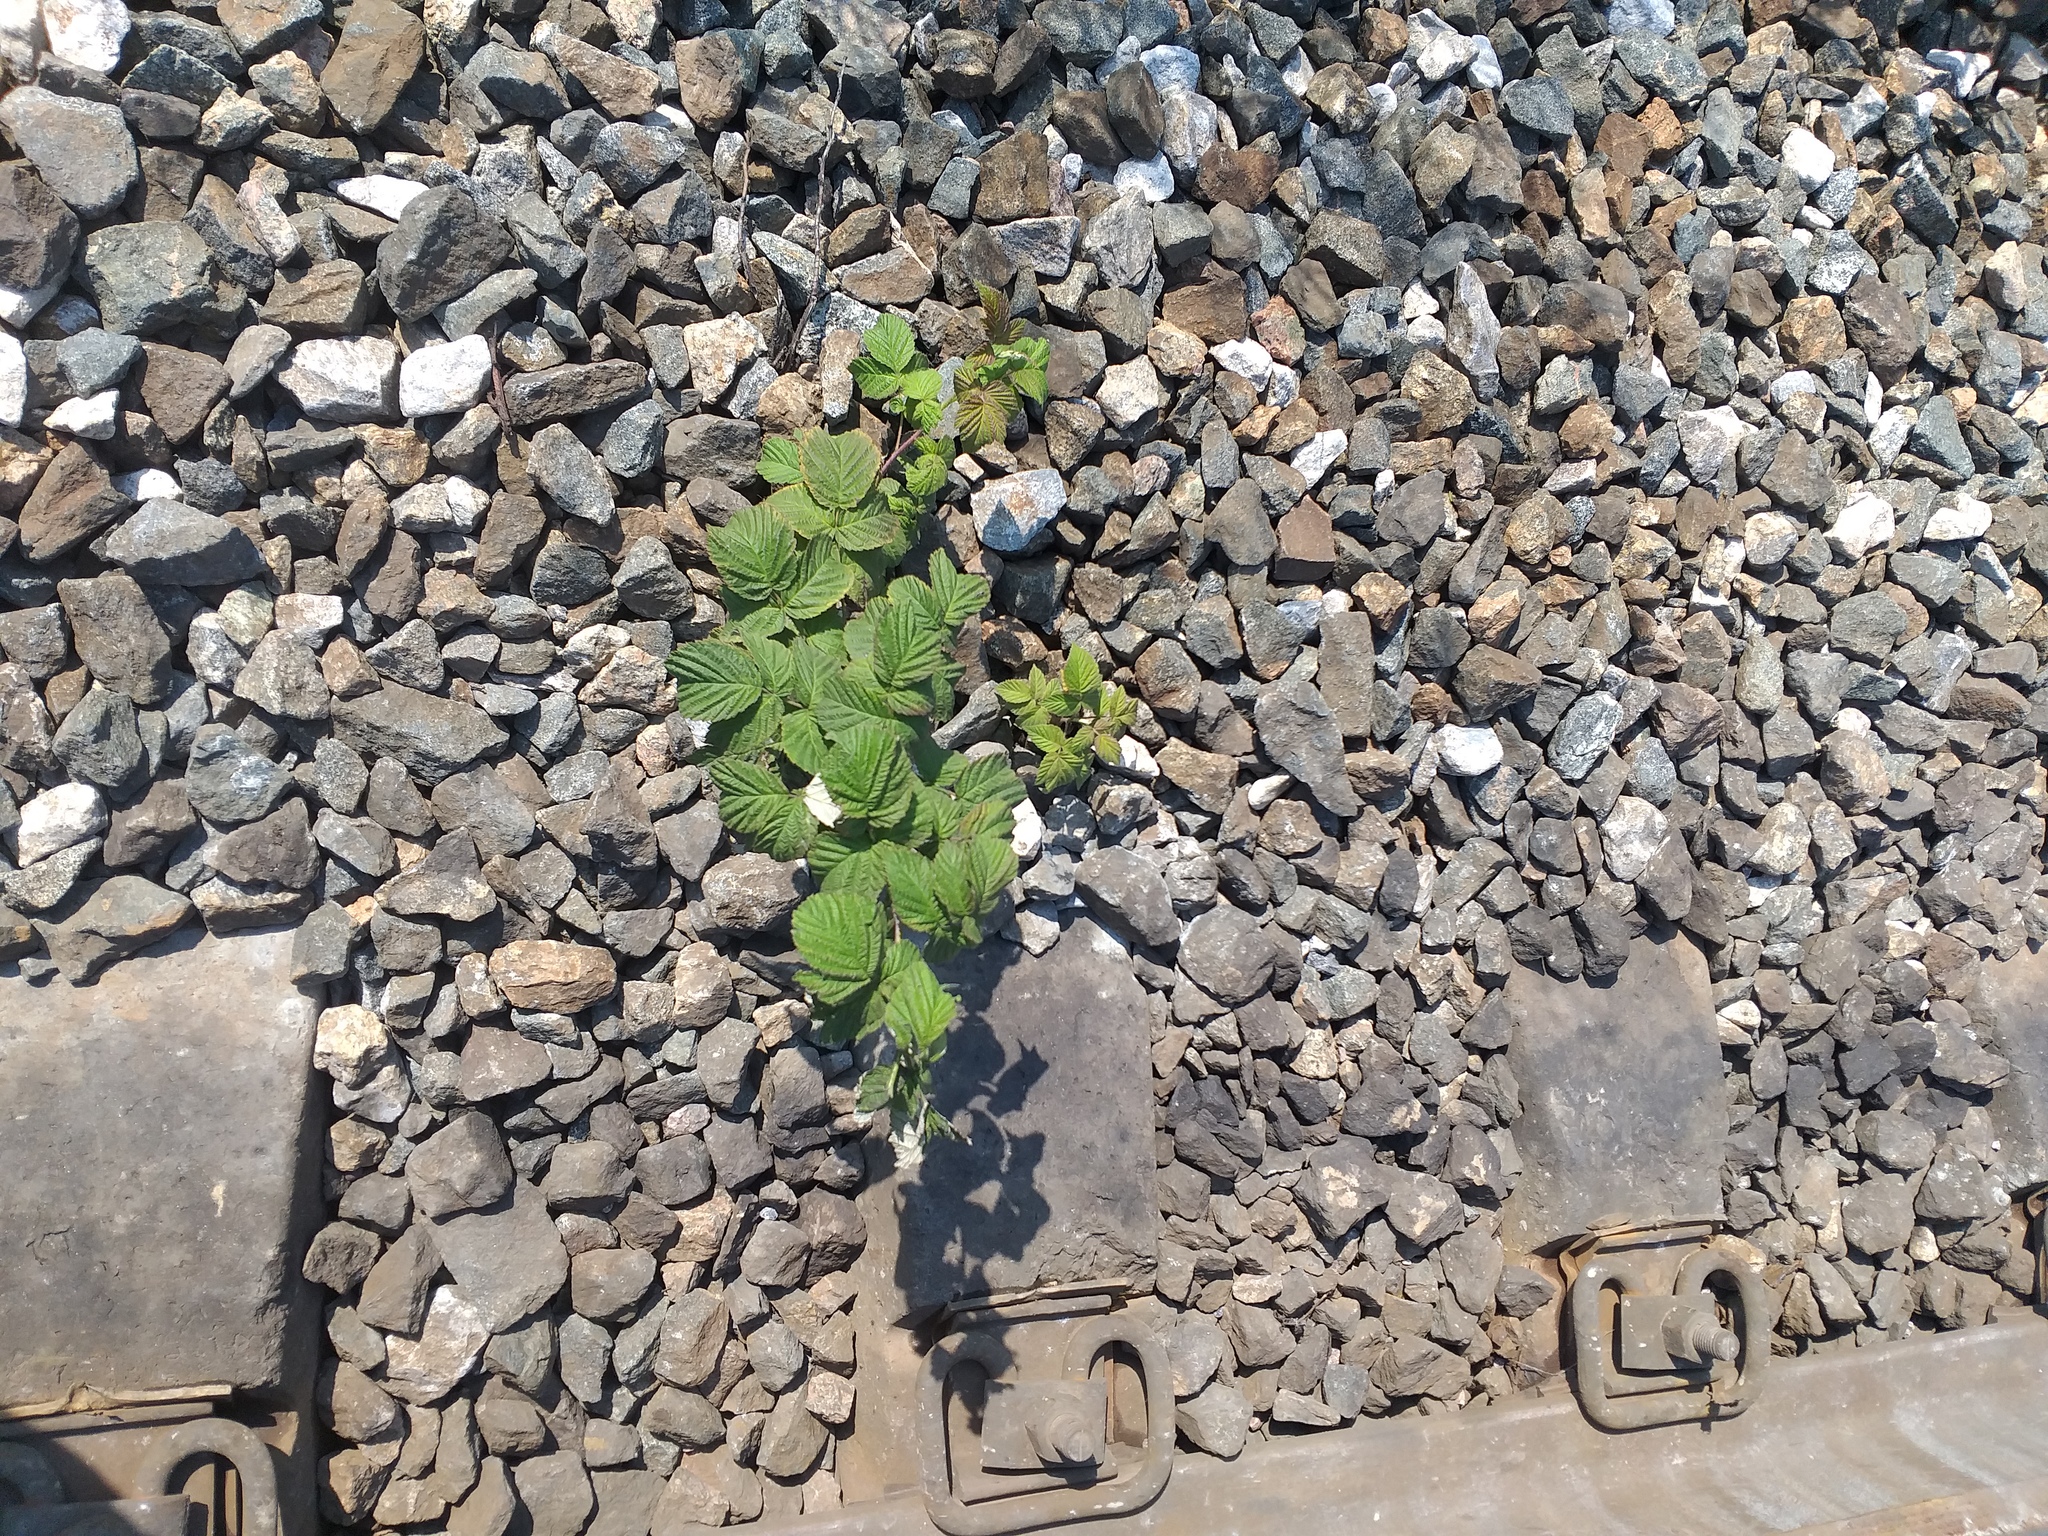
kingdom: Plantae
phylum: Tracheophyta
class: Magnoliopsida
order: Rosales
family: Rosaceae
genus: Rubus
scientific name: Rubus idaeus
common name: Raspberry
